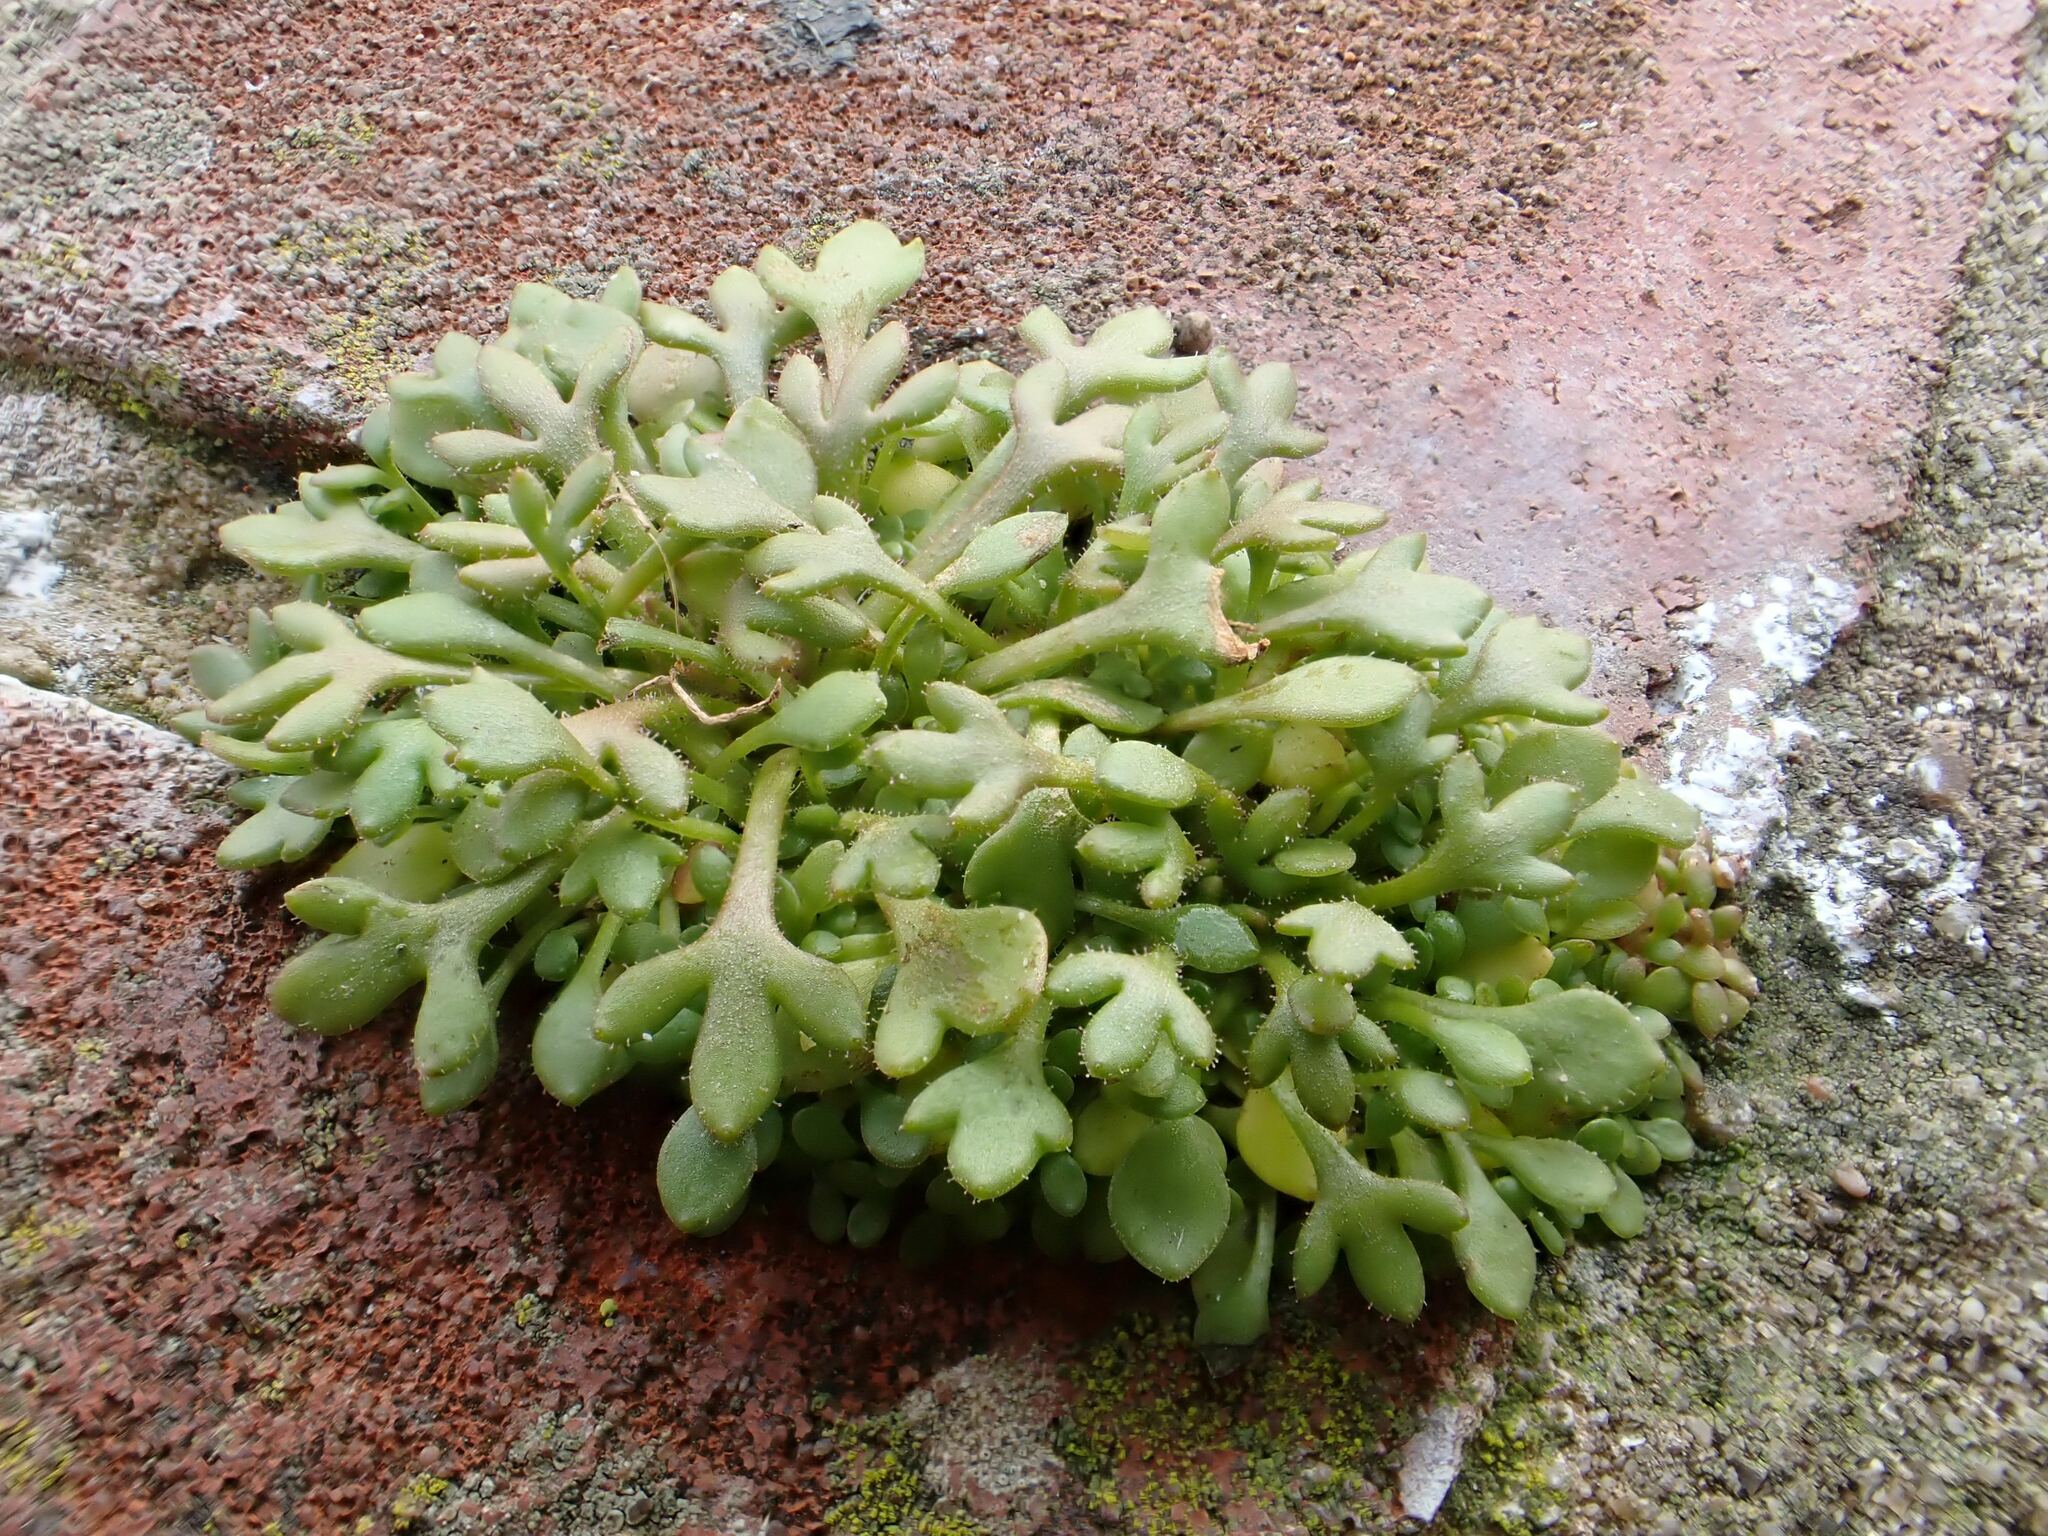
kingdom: Plantae
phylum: Tracheophyta
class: Magnoliopsida
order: Saxifragales
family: Saxifragaceae
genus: Saxifraga
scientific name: Saxifraga tridactylites
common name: Rue-leaved saxifrage
